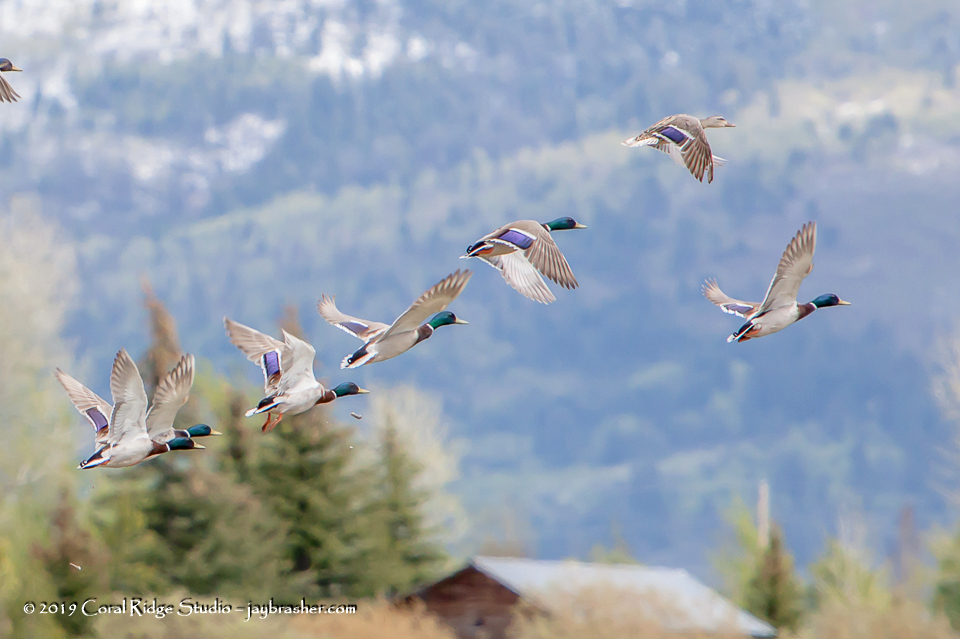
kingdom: Animalia
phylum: Chordata
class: Aves
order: Anseriformes
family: Anatidae
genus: Anas
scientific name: Anas platyrhynchos
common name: Mallard
